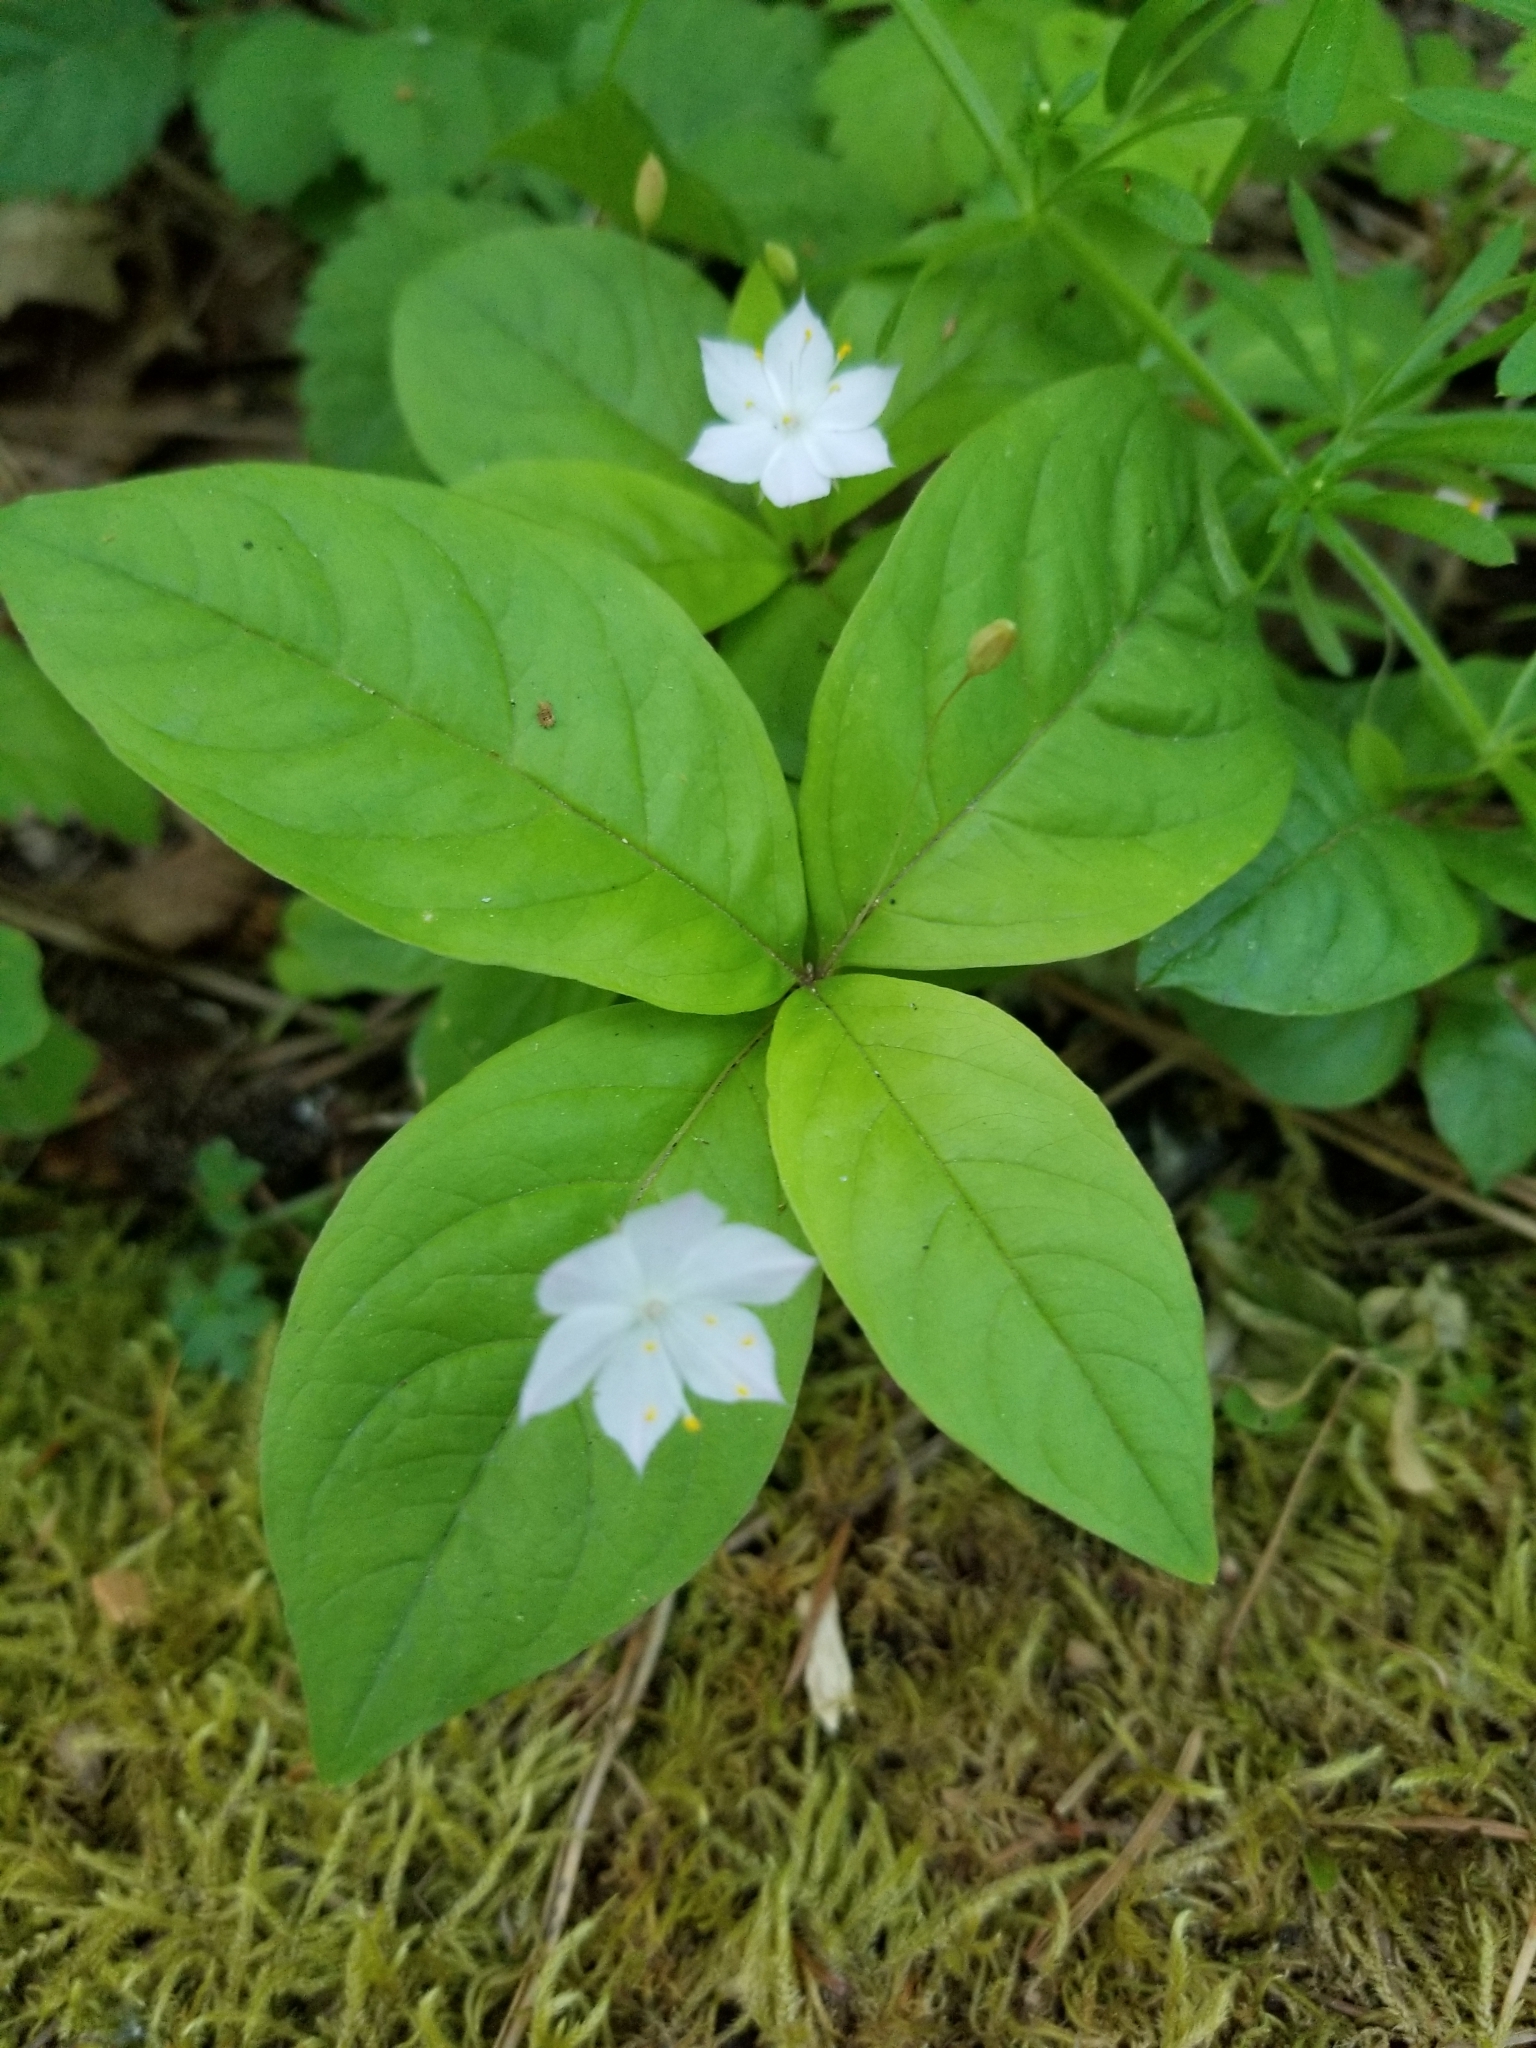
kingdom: Plantae
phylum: Tracheophyta
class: Magnoliopsida
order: Ericales
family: Primulaceae
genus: Lysimachia
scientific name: Lysimachia latifolia
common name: Pacific starflower
